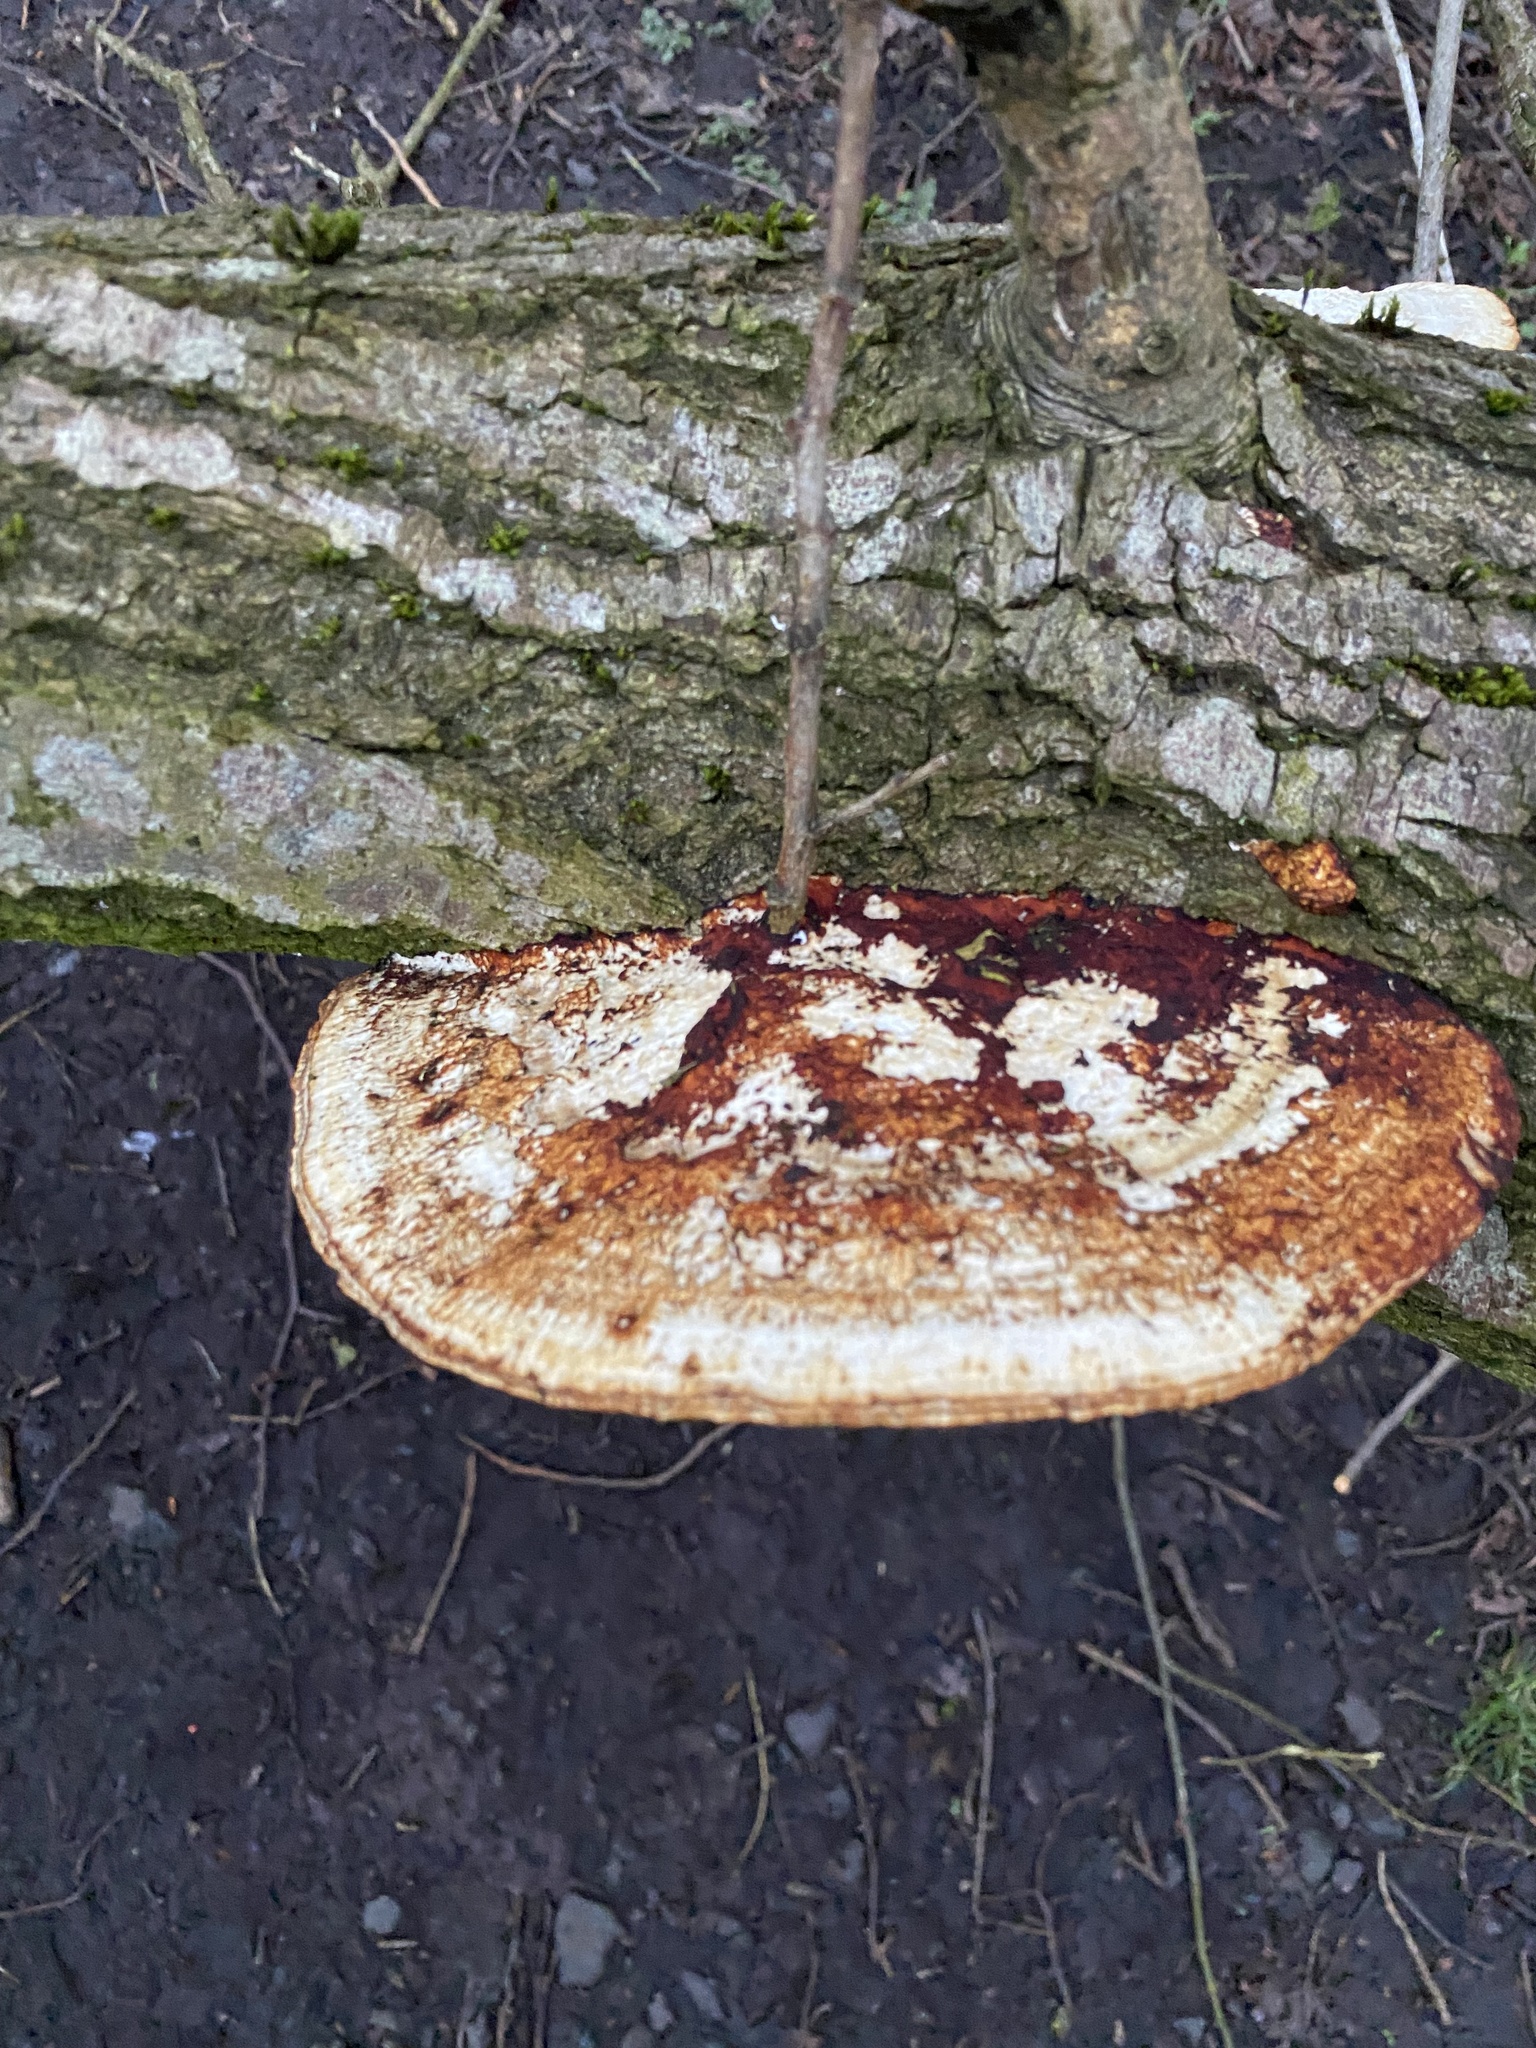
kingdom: Fungi
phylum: Basidiomycota
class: Agaricomycetes
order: Polyporales
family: Polyporaceae
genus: Daedaleopsis
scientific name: Daedaleopsis confragosa
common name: Blushing bracket
